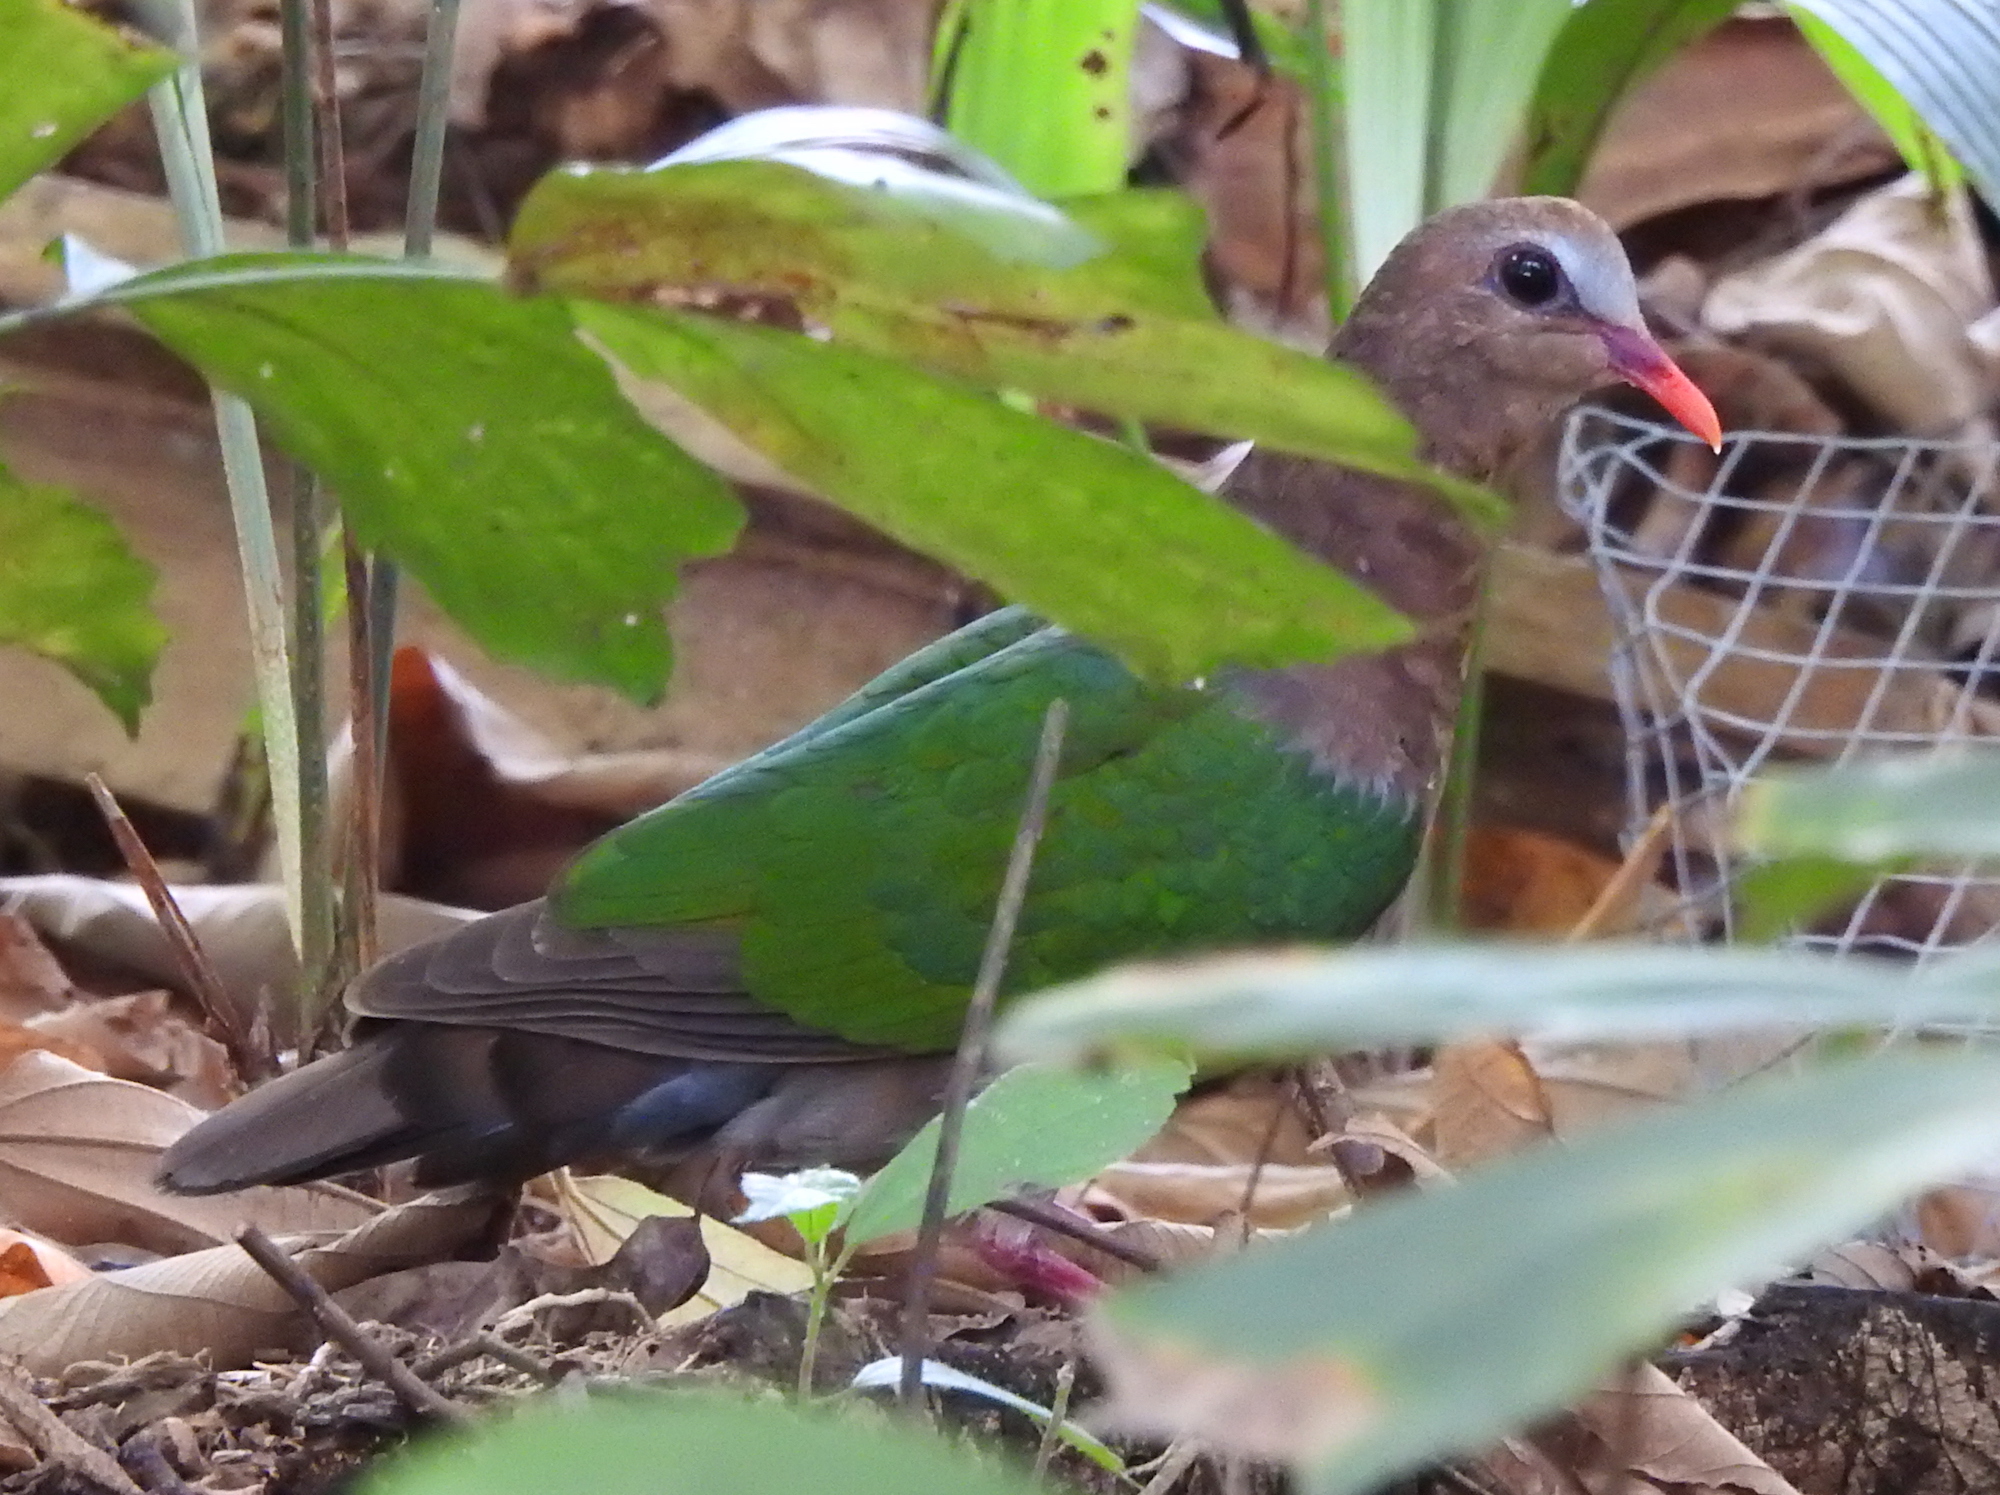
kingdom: Animalia
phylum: Chordata
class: Aves
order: Columbiformes
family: Columbidae
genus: Chalcophaps
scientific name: Chalcophaps indica
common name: Common emerald dove
